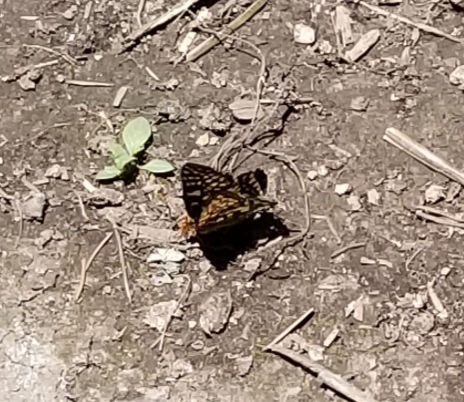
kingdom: Animalia
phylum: Arthropoda
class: Insecta
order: Lepidoptera
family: Nymphalidae
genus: Occidryas
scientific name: Occidryas chalcedona
